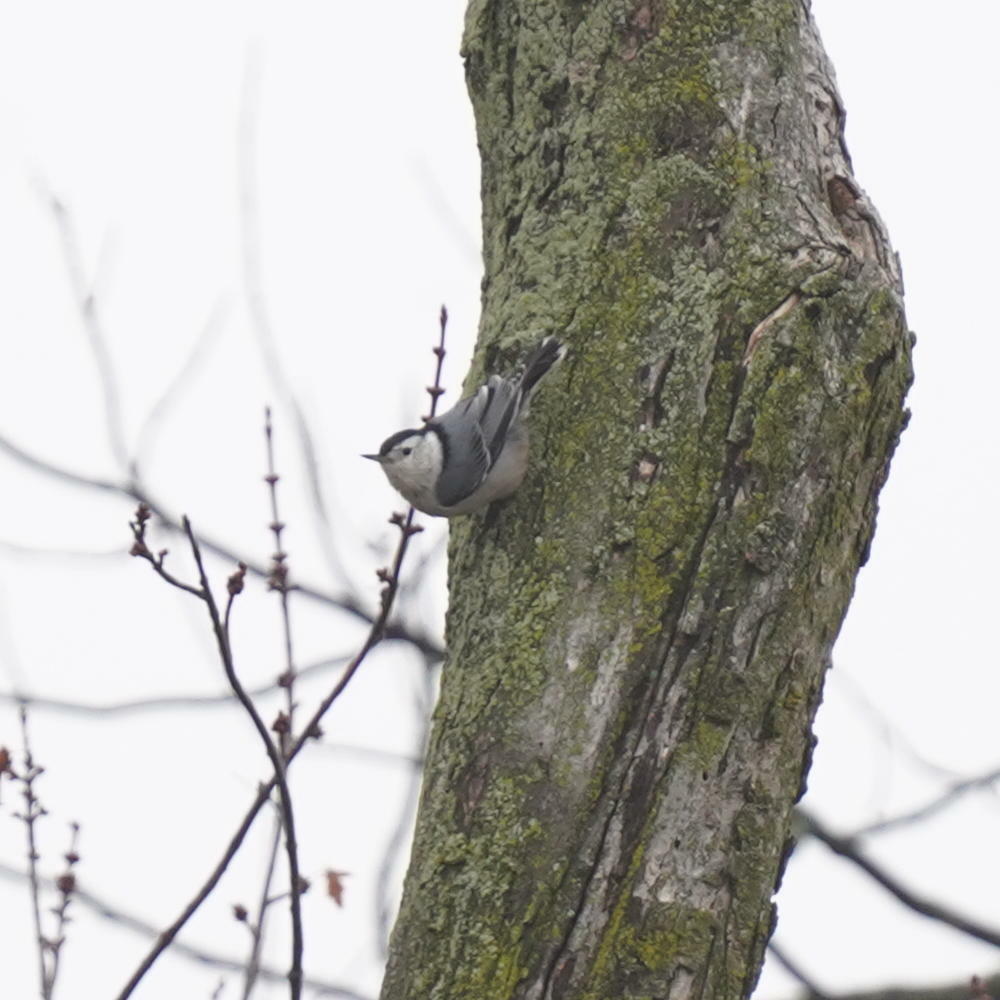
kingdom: Animalia
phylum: Chordata
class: Aves
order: Passeriformes
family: Sittidae
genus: Sitta
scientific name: Sitta carolinensis
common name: White-breasted nuthatch
